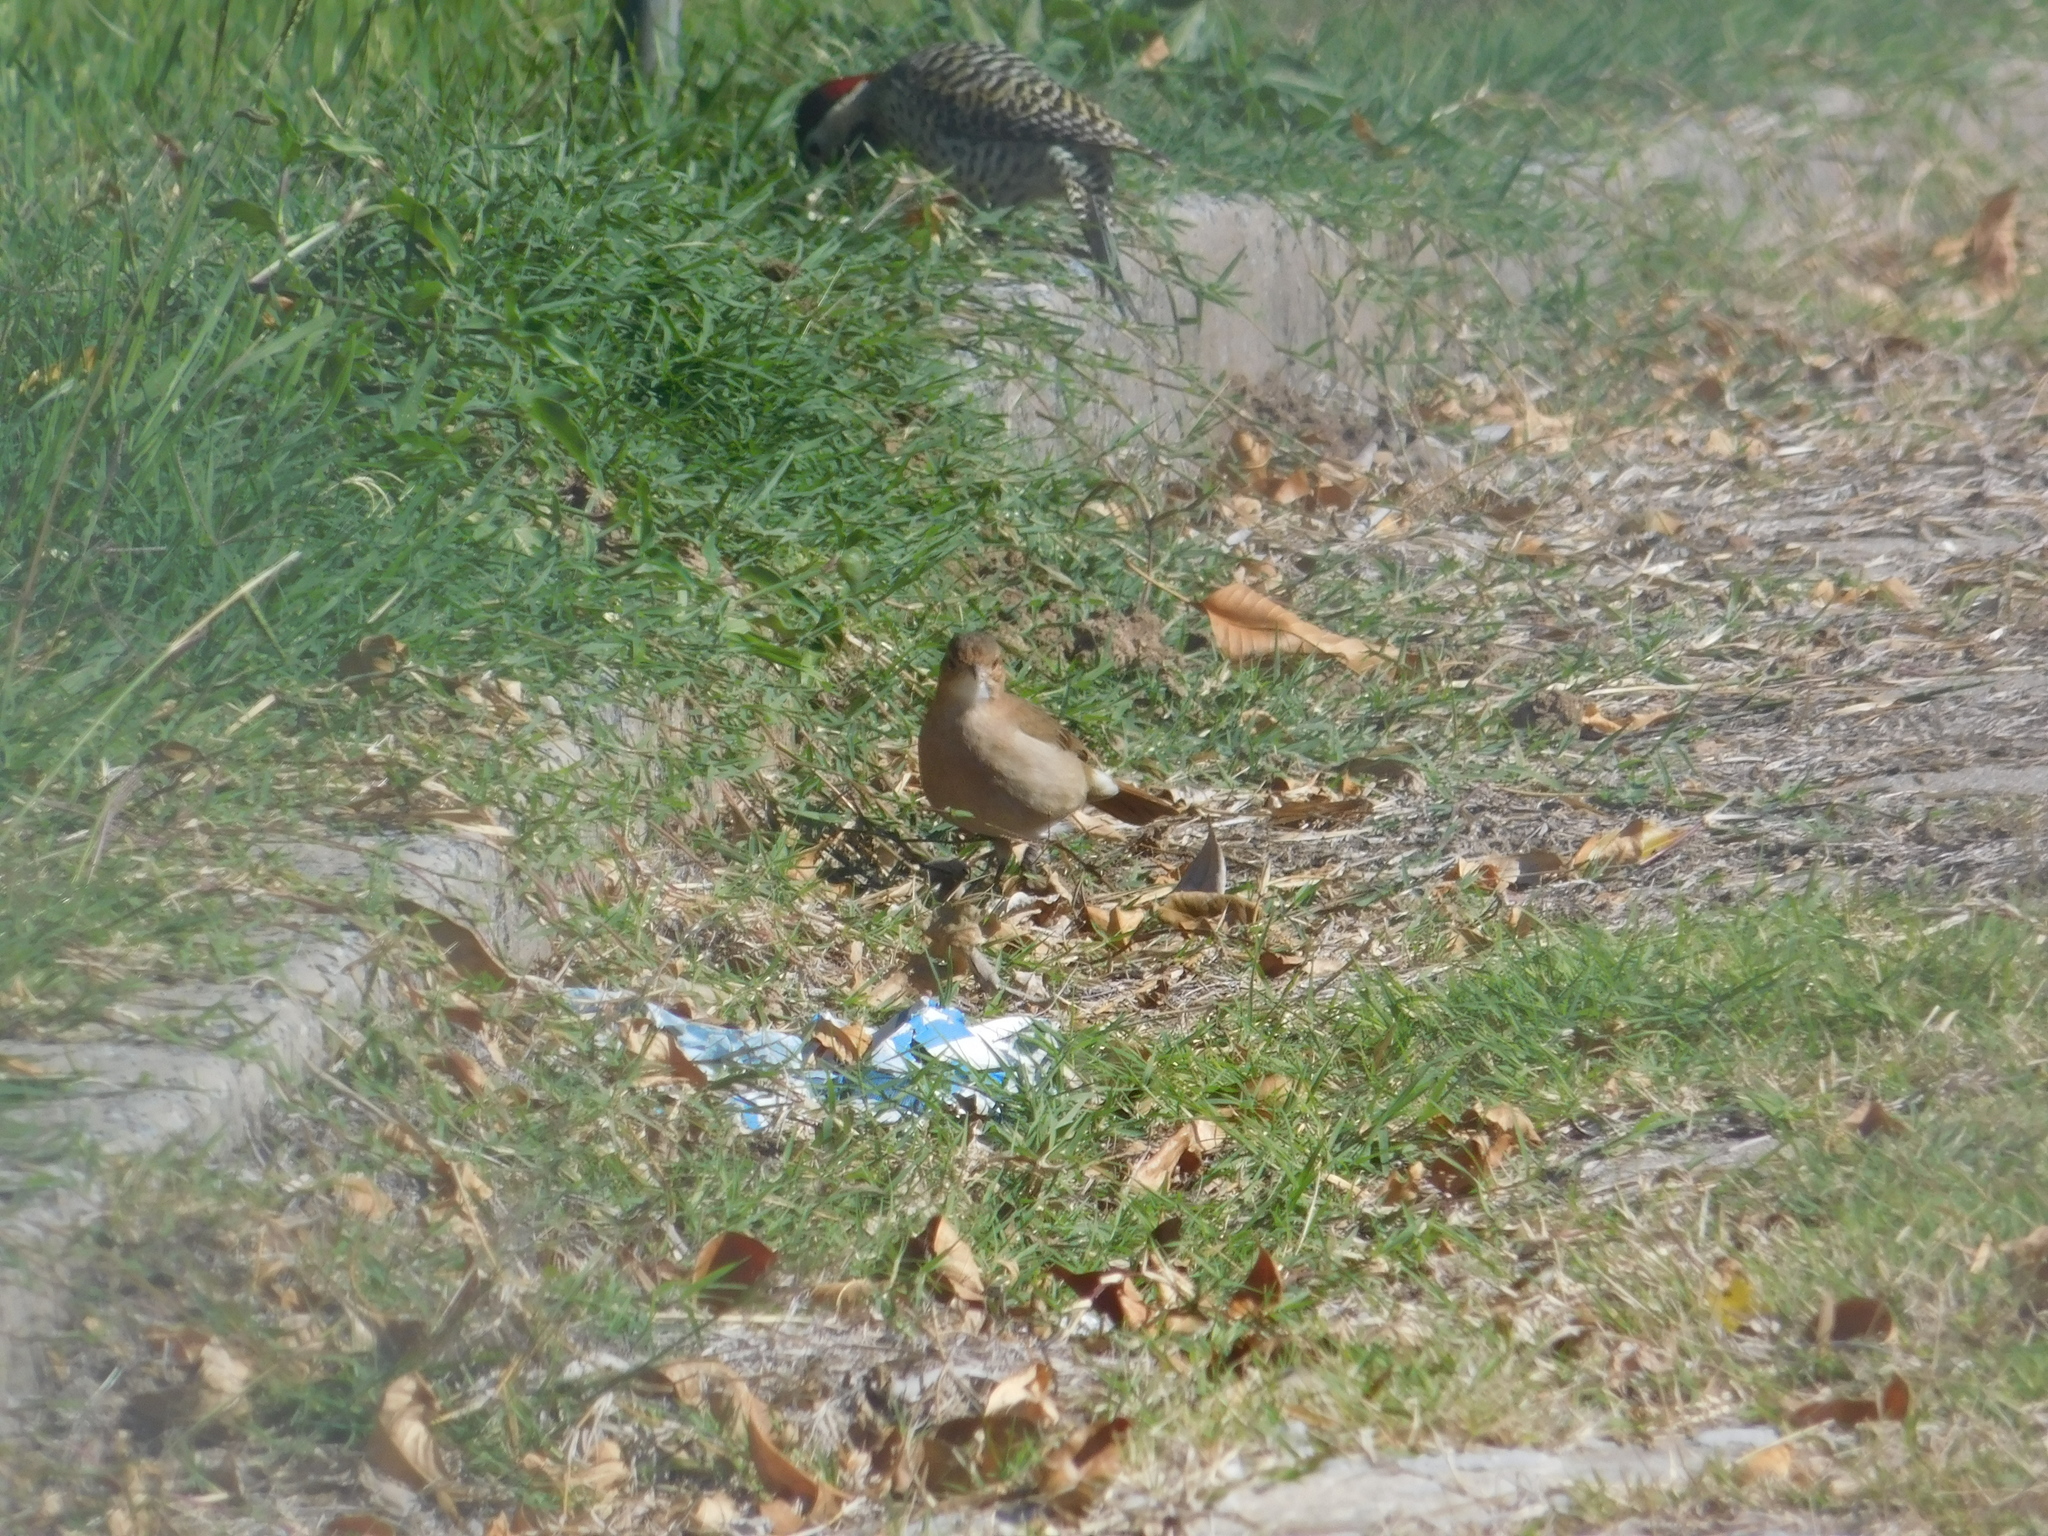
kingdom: Animalia
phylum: Chordata
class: Aves
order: Passeriformes
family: Furnariidae
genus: Furnarius
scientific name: Furnarius rufus
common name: Rufous hornero
